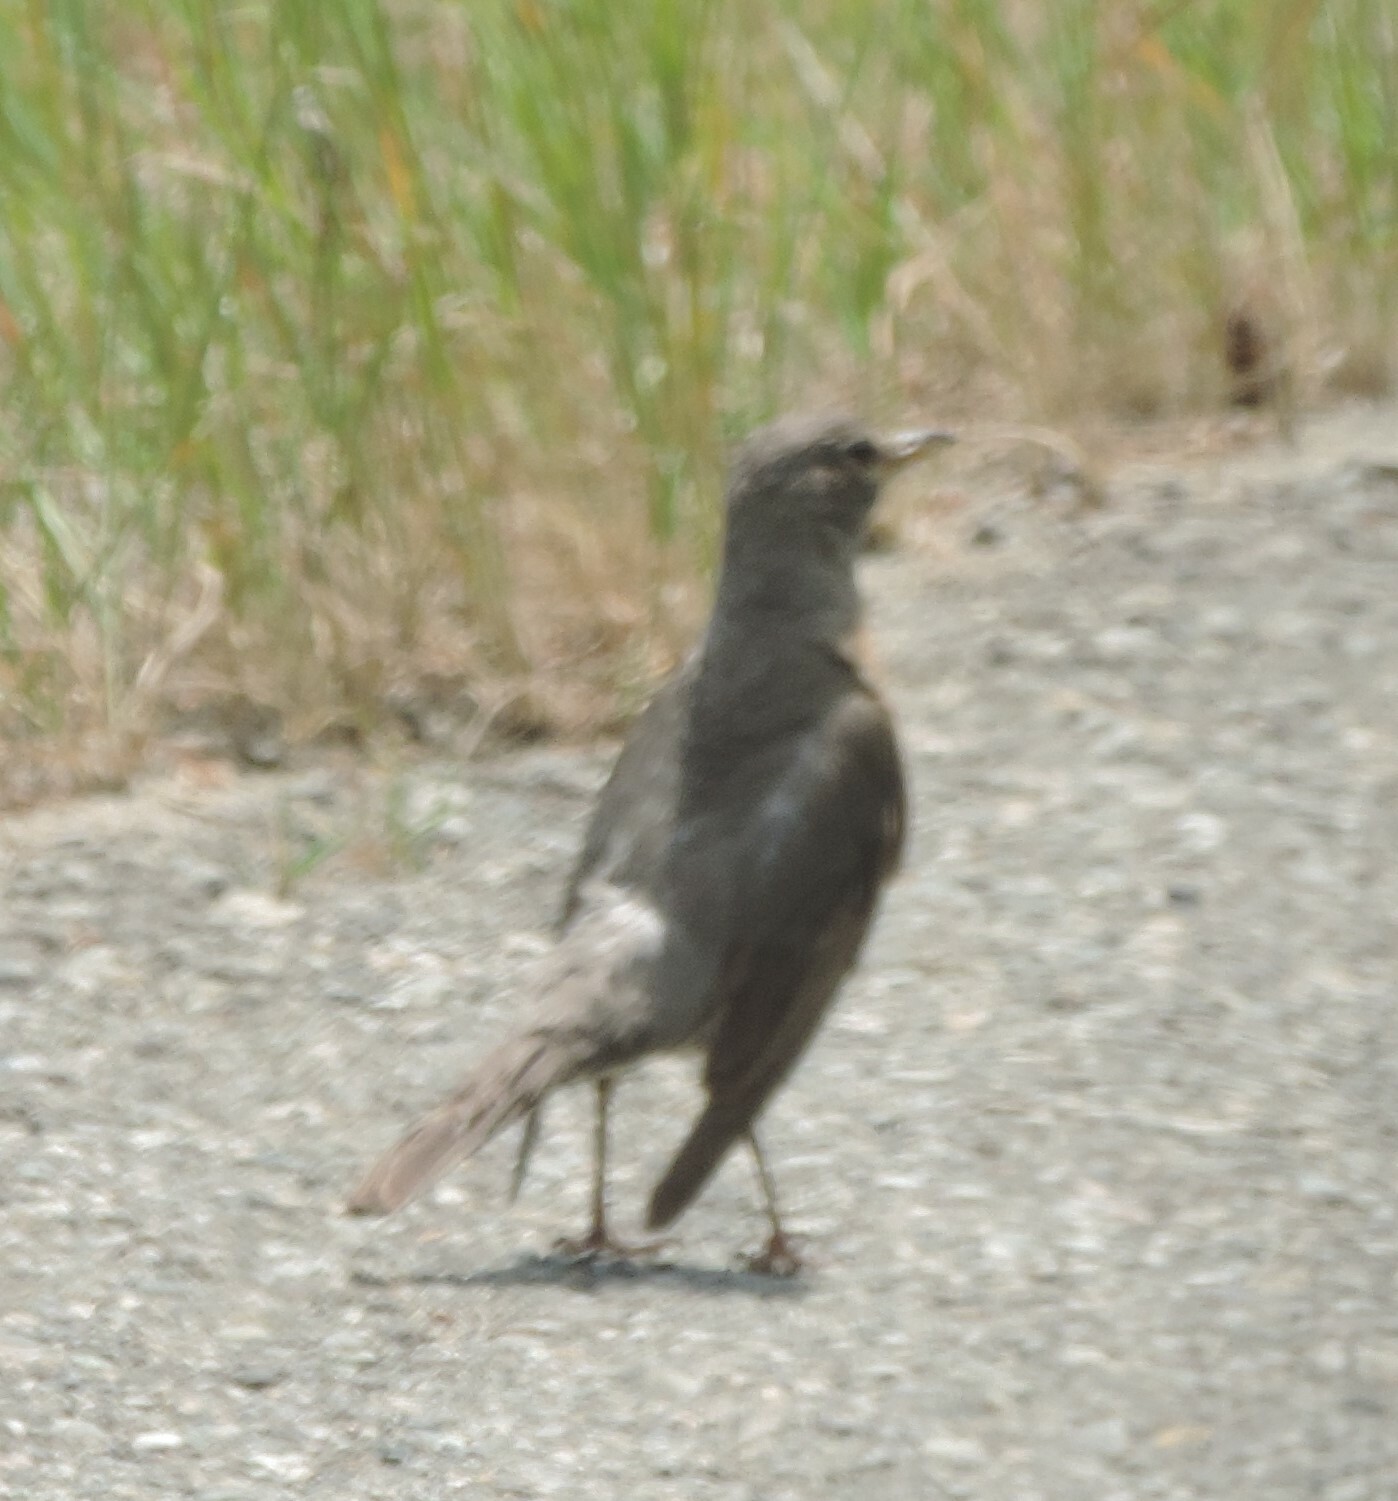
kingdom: Animalia
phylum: Chordata
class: Aves
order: Passeriformes
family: Turdidae
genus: Turdus
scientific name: Turdus migratorius
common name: American robin
